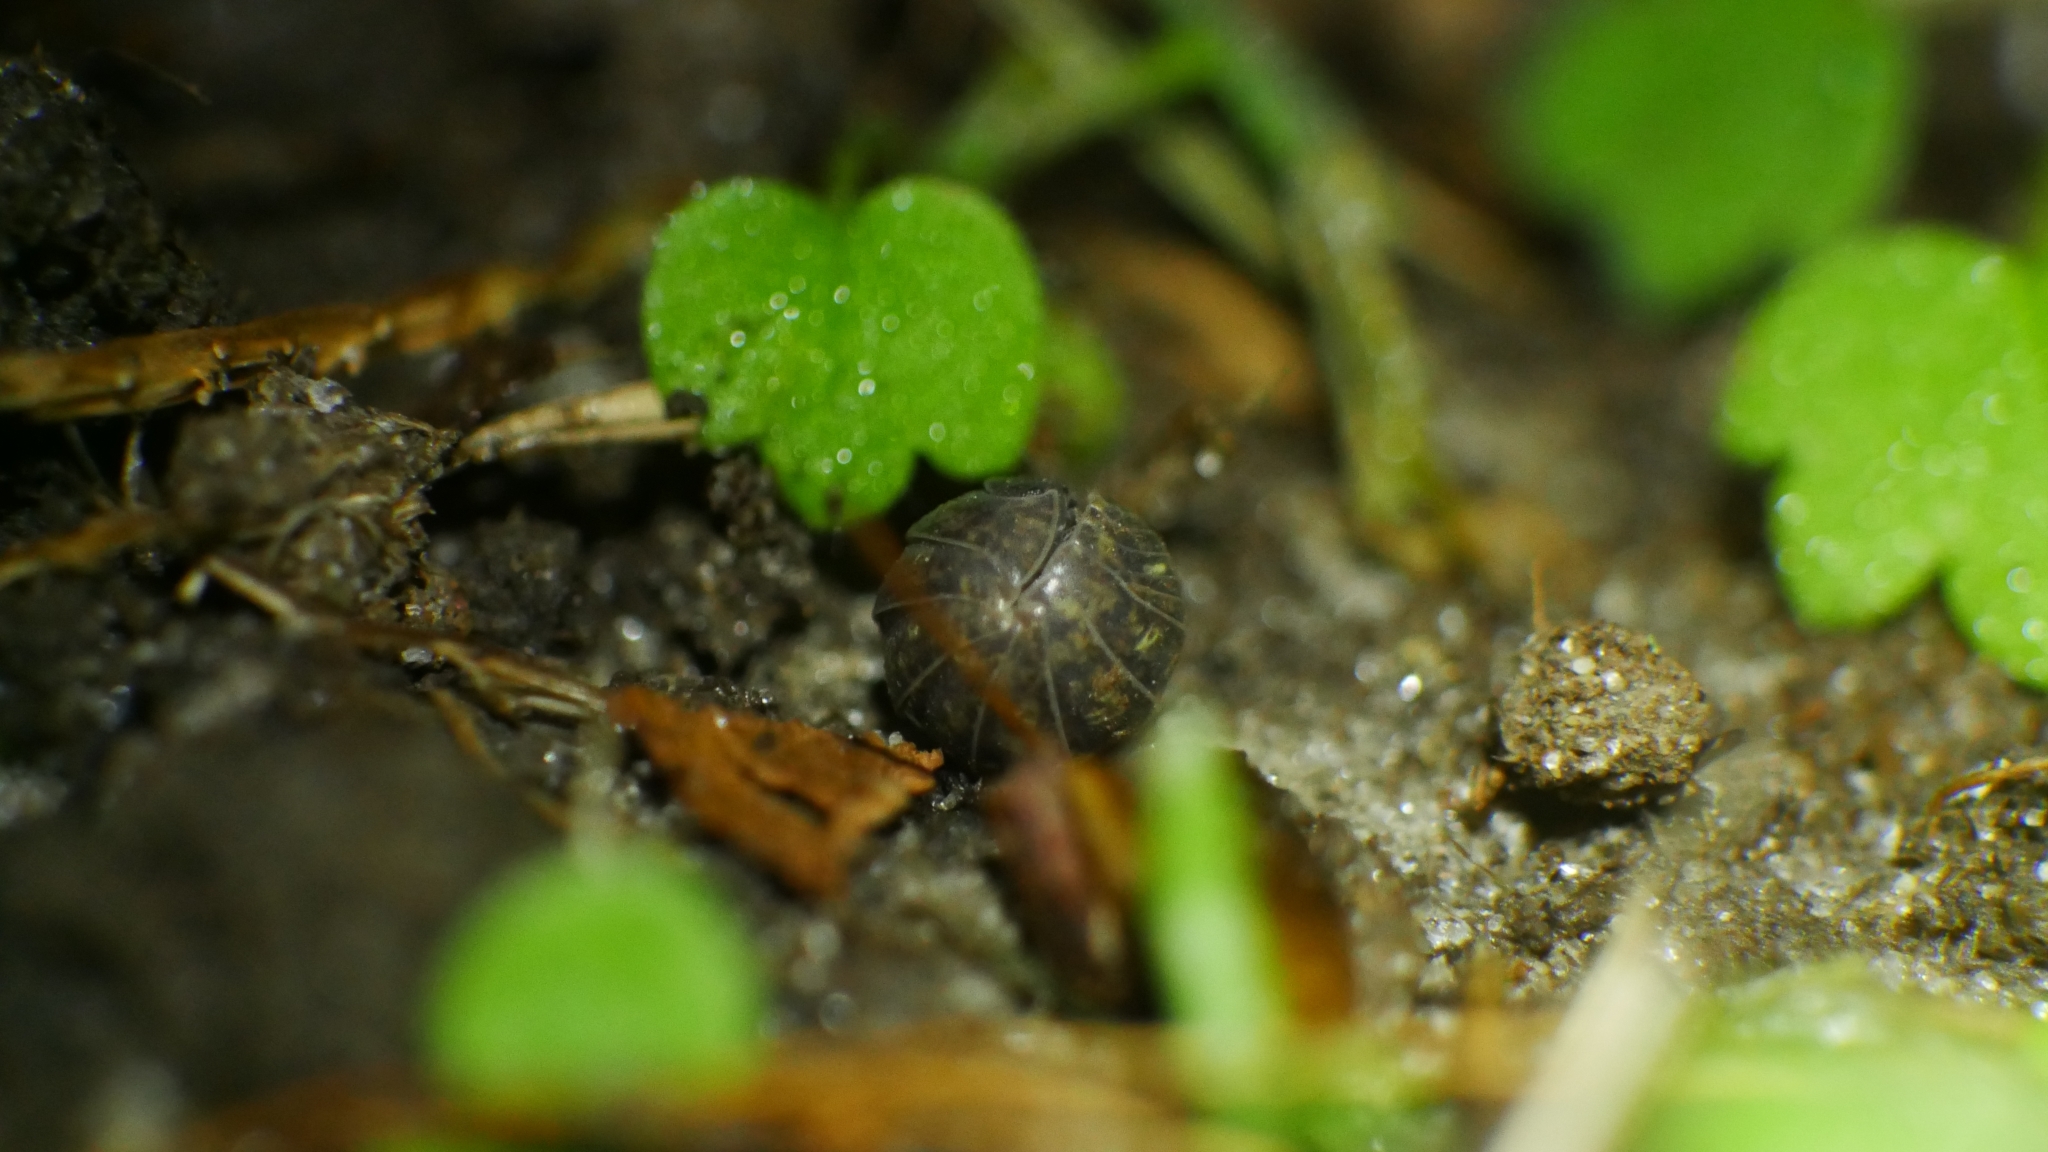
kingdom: Animalia
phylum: Arthropoda
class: Malacostraca
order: Isopoda
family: Armadillidiidae
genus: Armadillidium
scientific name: Armadillidium vulgare
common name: Common pill woodlouse
